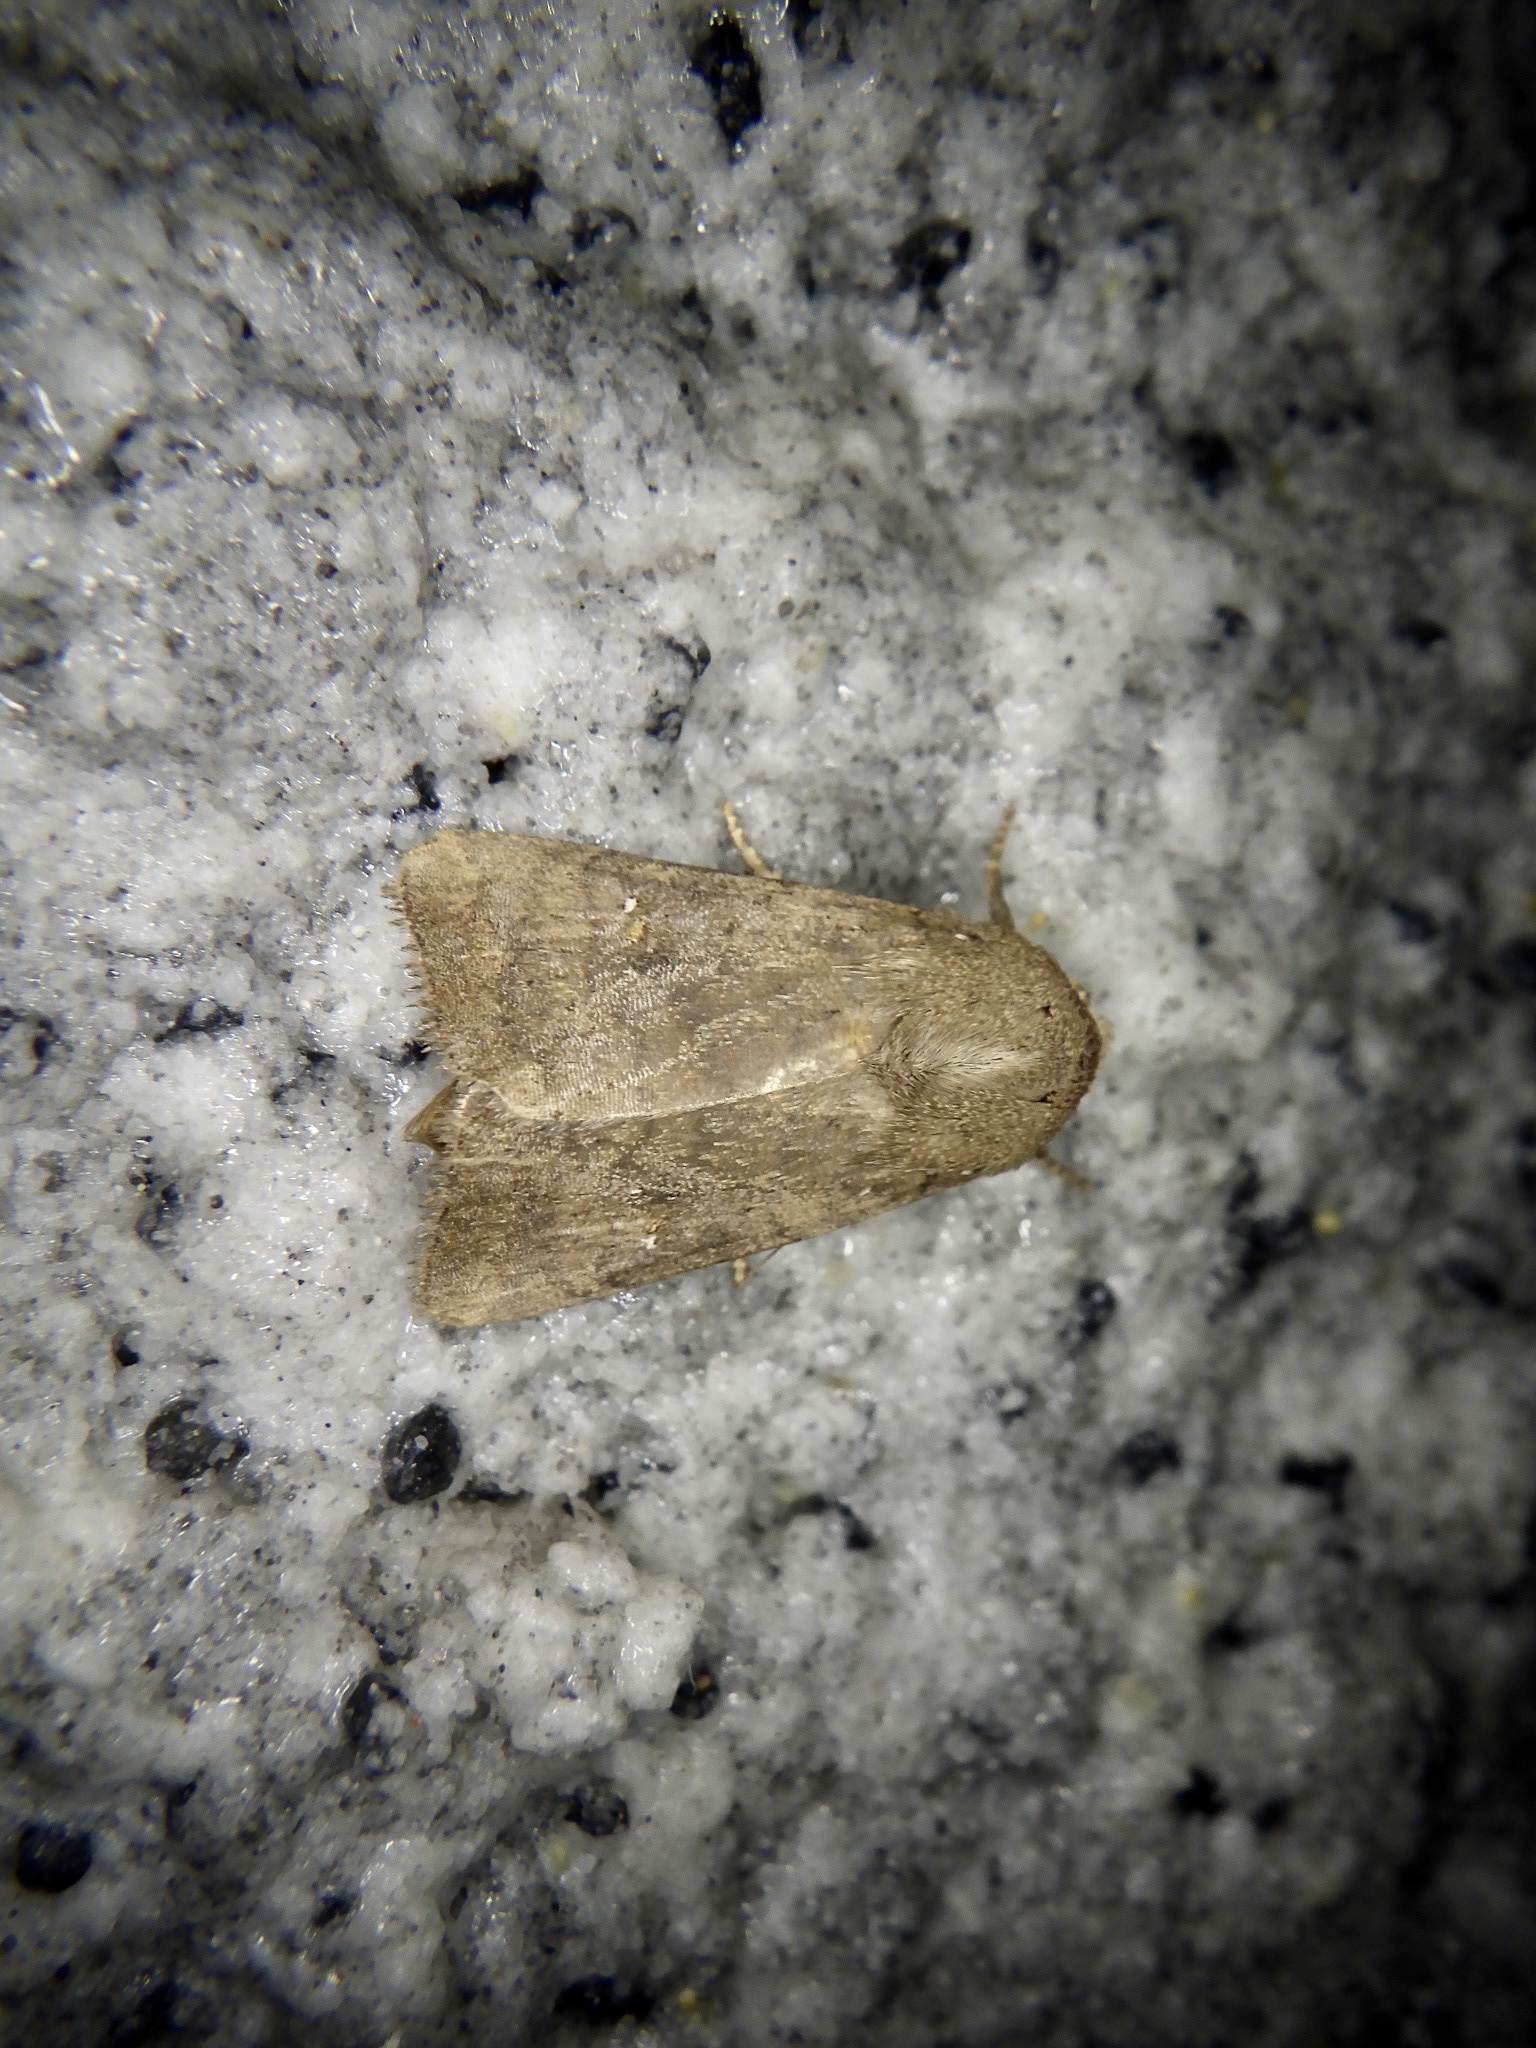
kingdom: Animalia
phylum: Arthropoda
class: Insecta
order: Lepidoptera
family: Noctuidae
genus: Athetis
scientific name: Athetis stellata
